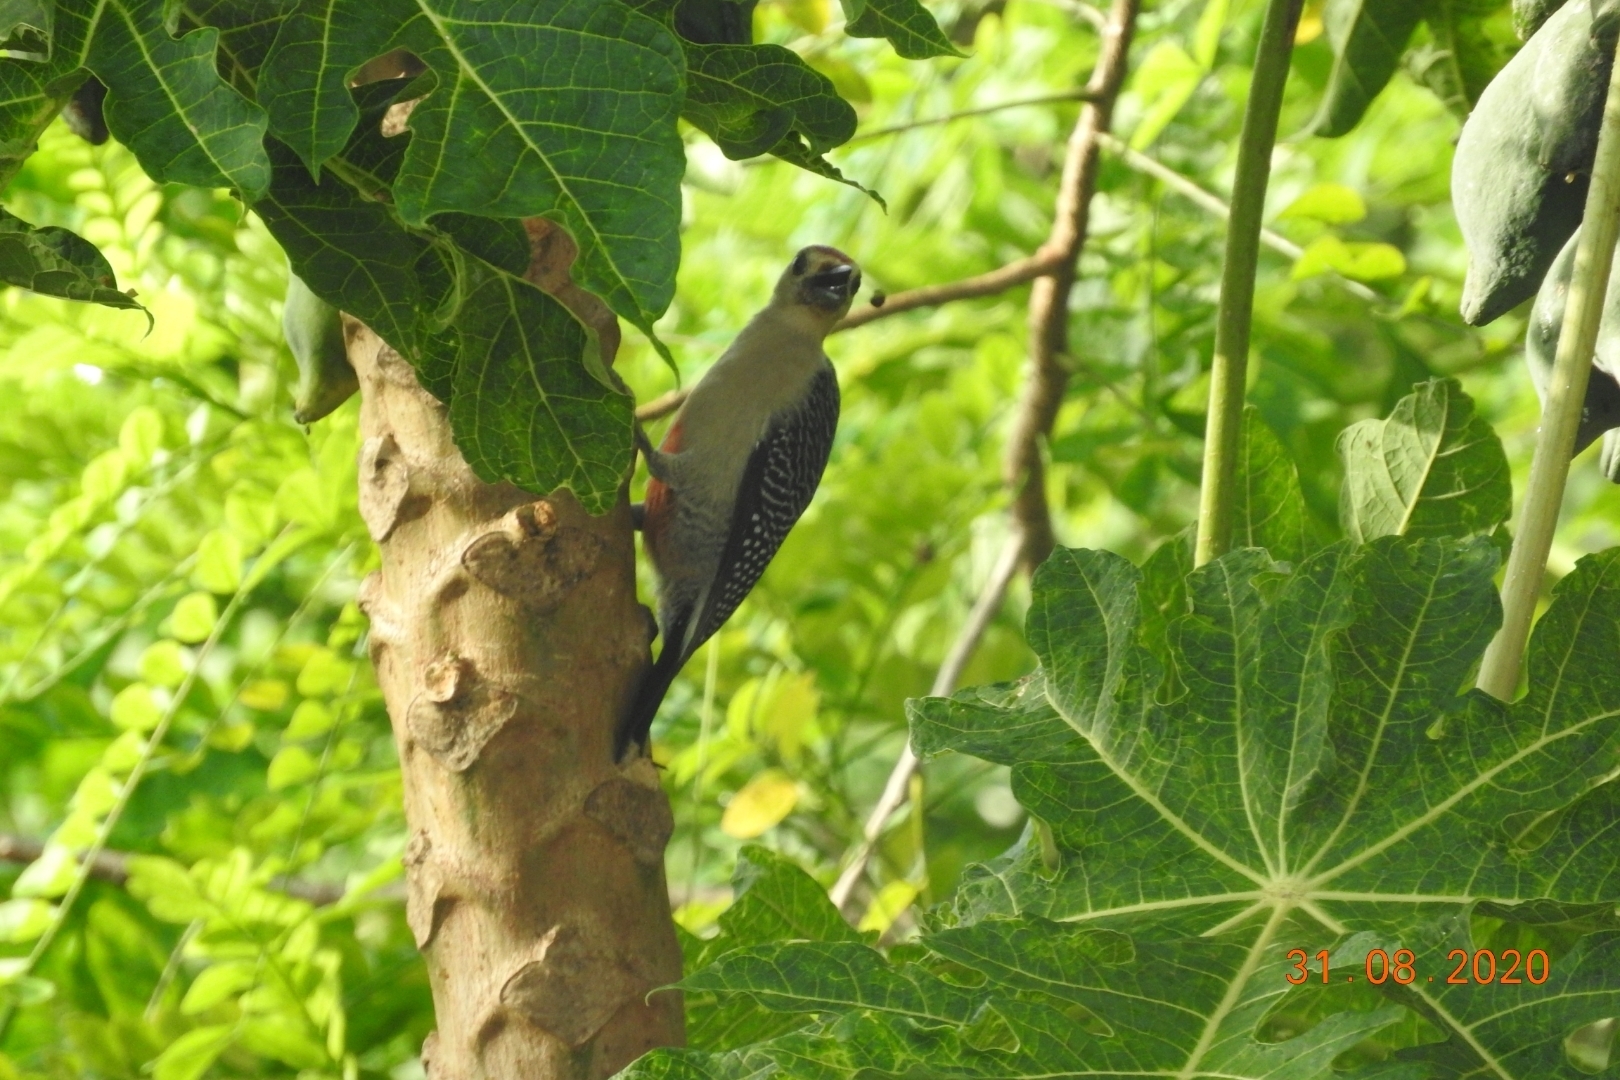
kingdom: Animalia
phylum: Chordata
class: Aves
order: Piciformes
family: Picidae
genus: Melanerpes
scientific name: Melanerpes aurifrons
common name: Golden-fronted woodpecker
